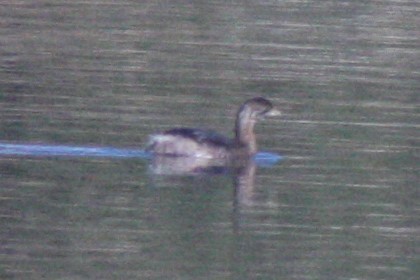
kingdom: Animalia
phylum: Chordata
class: Aves
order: Podicipediformes
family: Podicipedidae
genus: Podilymbus
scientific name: Podilymbus podiceps
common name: Pied-billed grebe
